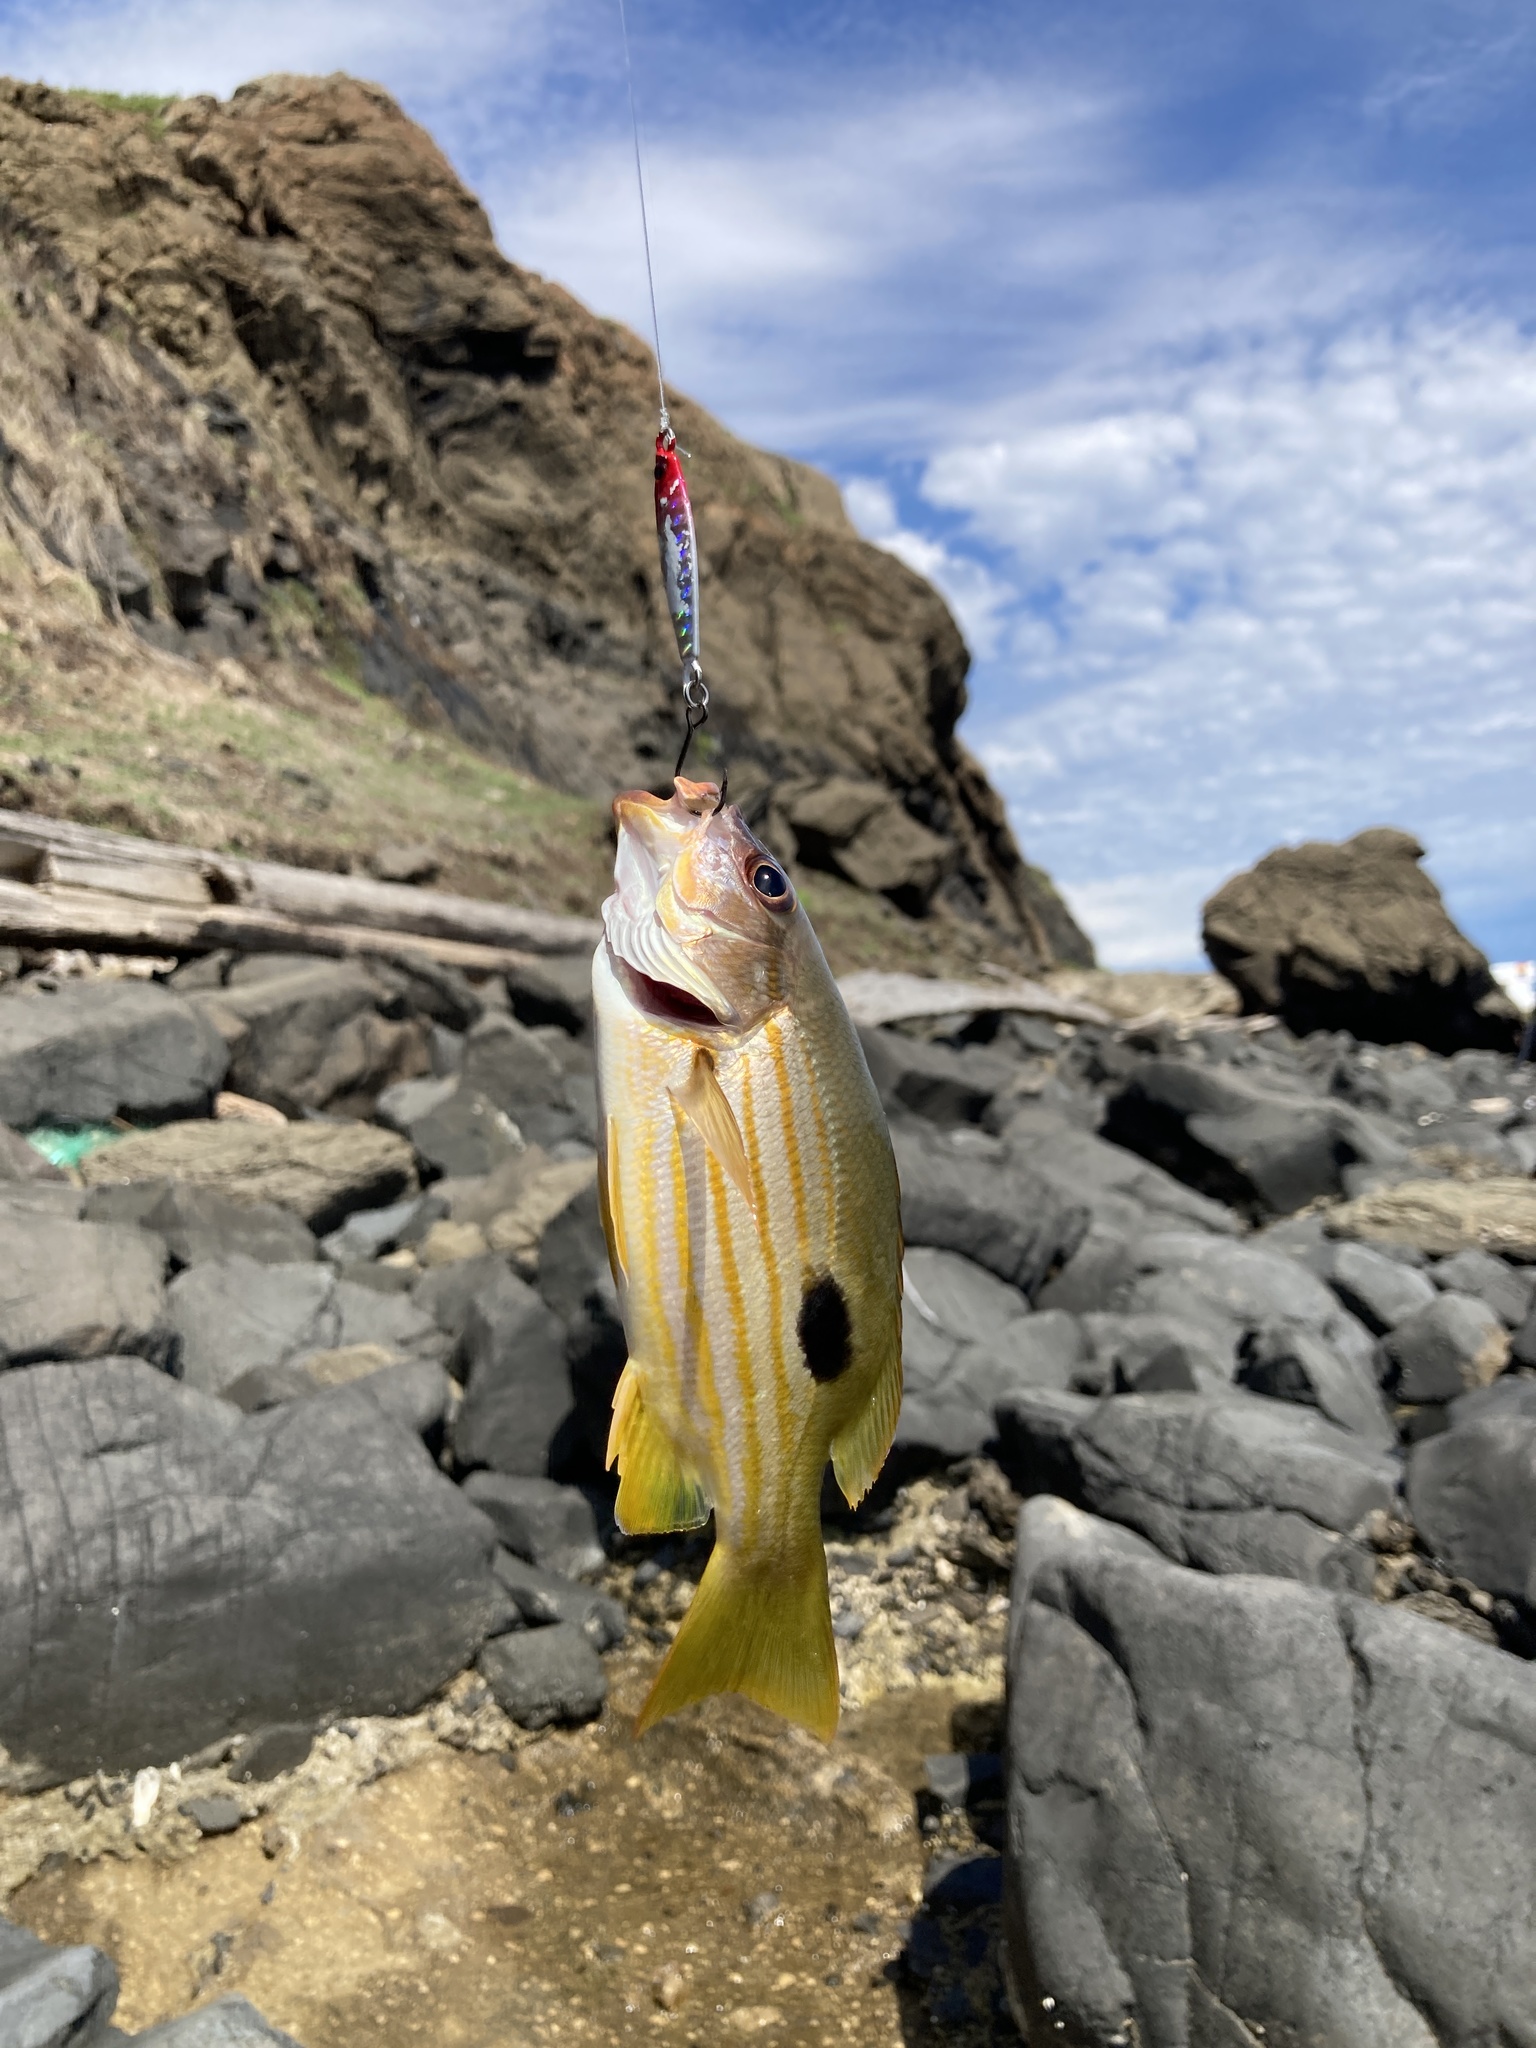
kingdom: Animalia
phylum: Chordata
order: Perciformes
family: Lutjanidae
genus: Lutjanus
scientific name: Lutjanus fulviflamma
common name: Blackspot snapper
